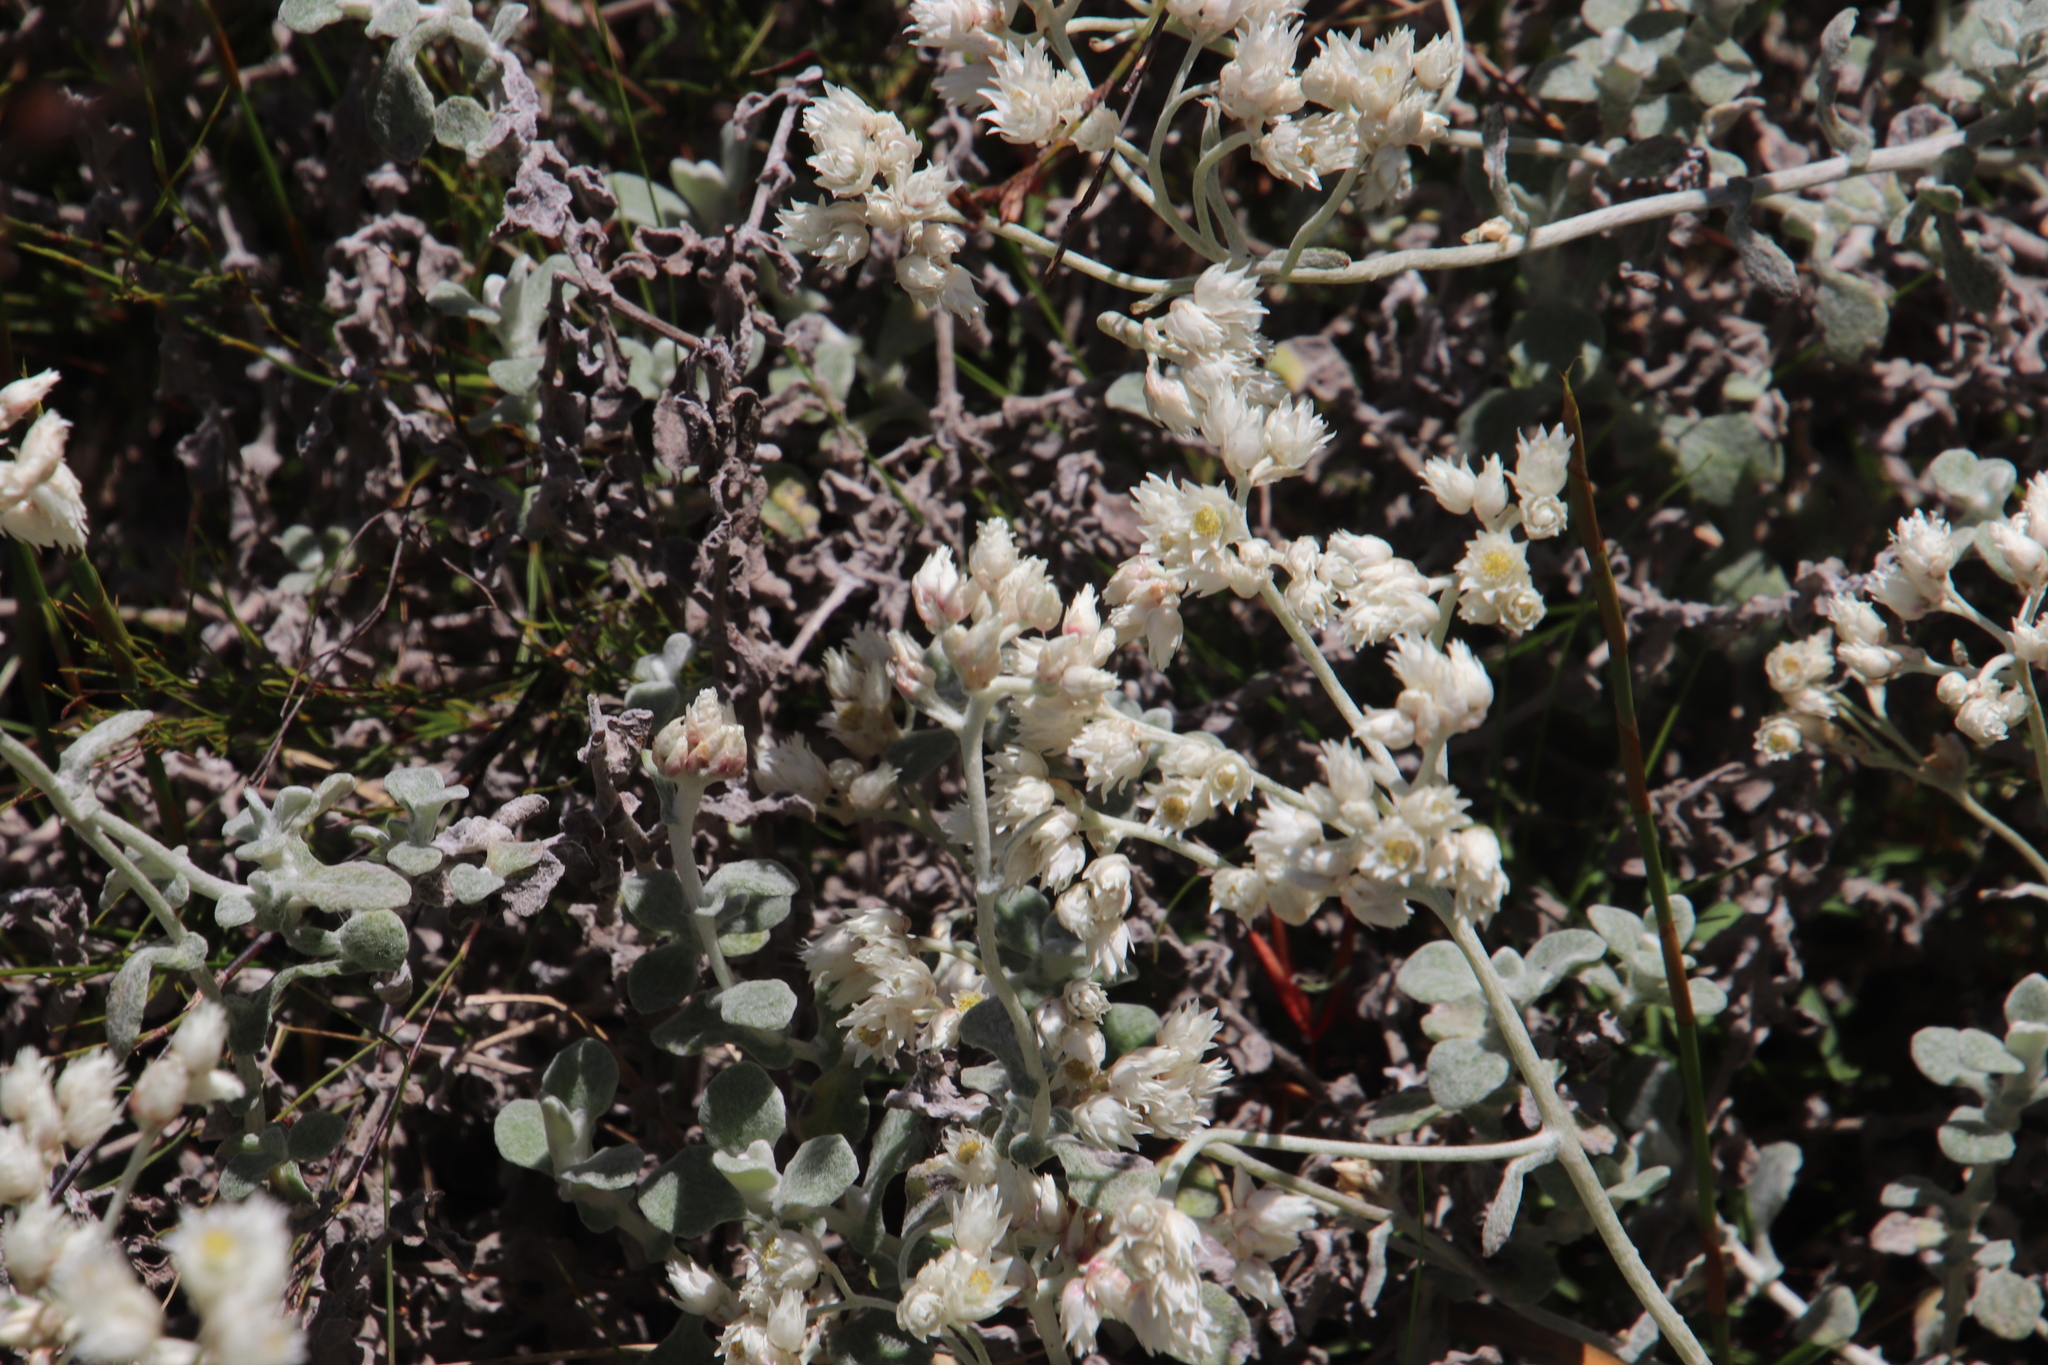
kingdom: Plantae
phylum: Tracheophyta
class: Magnoliopsida
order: Asterales
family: Asteraceae
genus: Helichrysum
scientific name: Helichrysum pandurifolium
